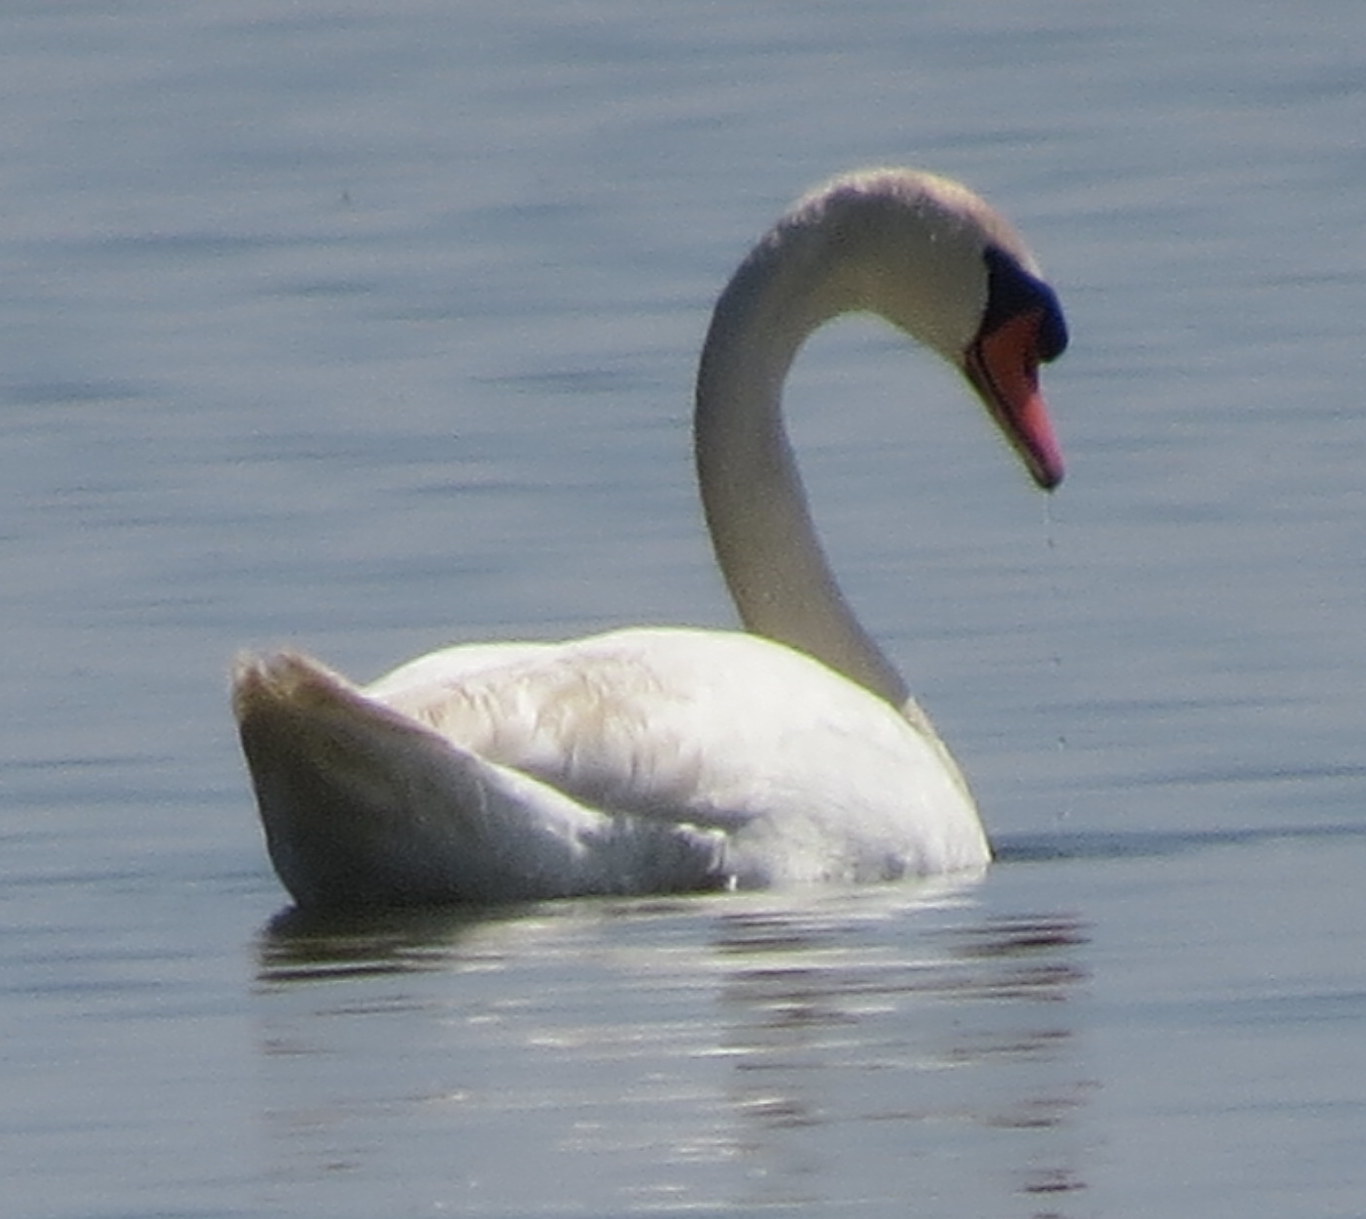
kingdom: Animalia
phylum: Chordata
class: Aves
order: Anseriformes
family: Anatidae
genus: Cygnus
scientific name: Cygnus olor
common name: Mute swan
